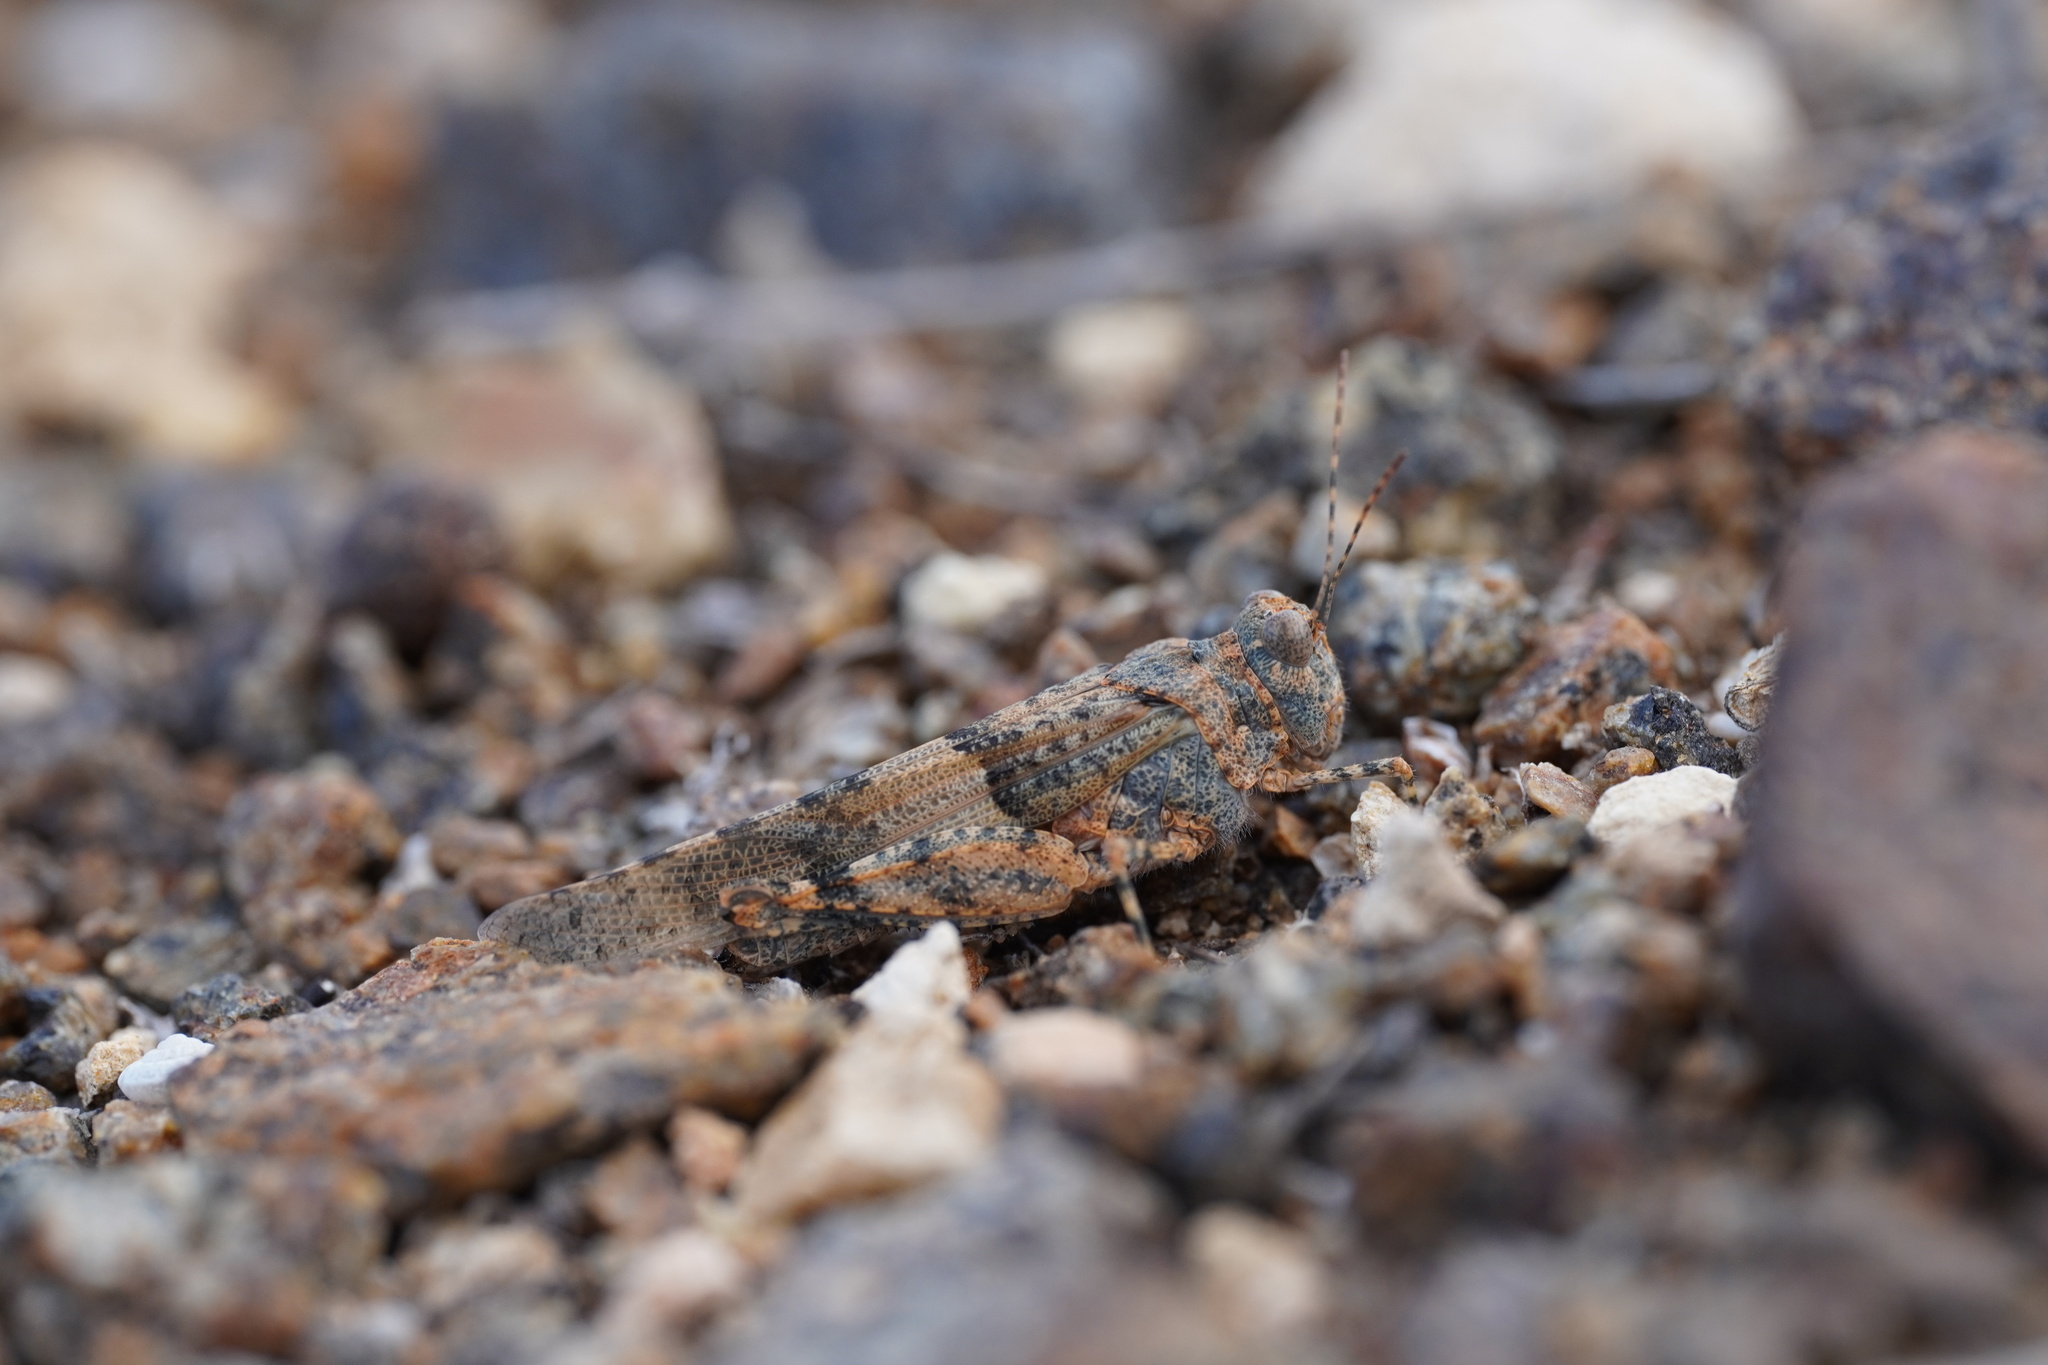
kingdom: Animalia
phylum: Arthropoda
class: Insecta
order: Orthoptera
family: Acrididae
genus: Sphingonotus
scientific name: Sphingonotus fuerteventurae
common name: Fuerteventura sand grasshopper
